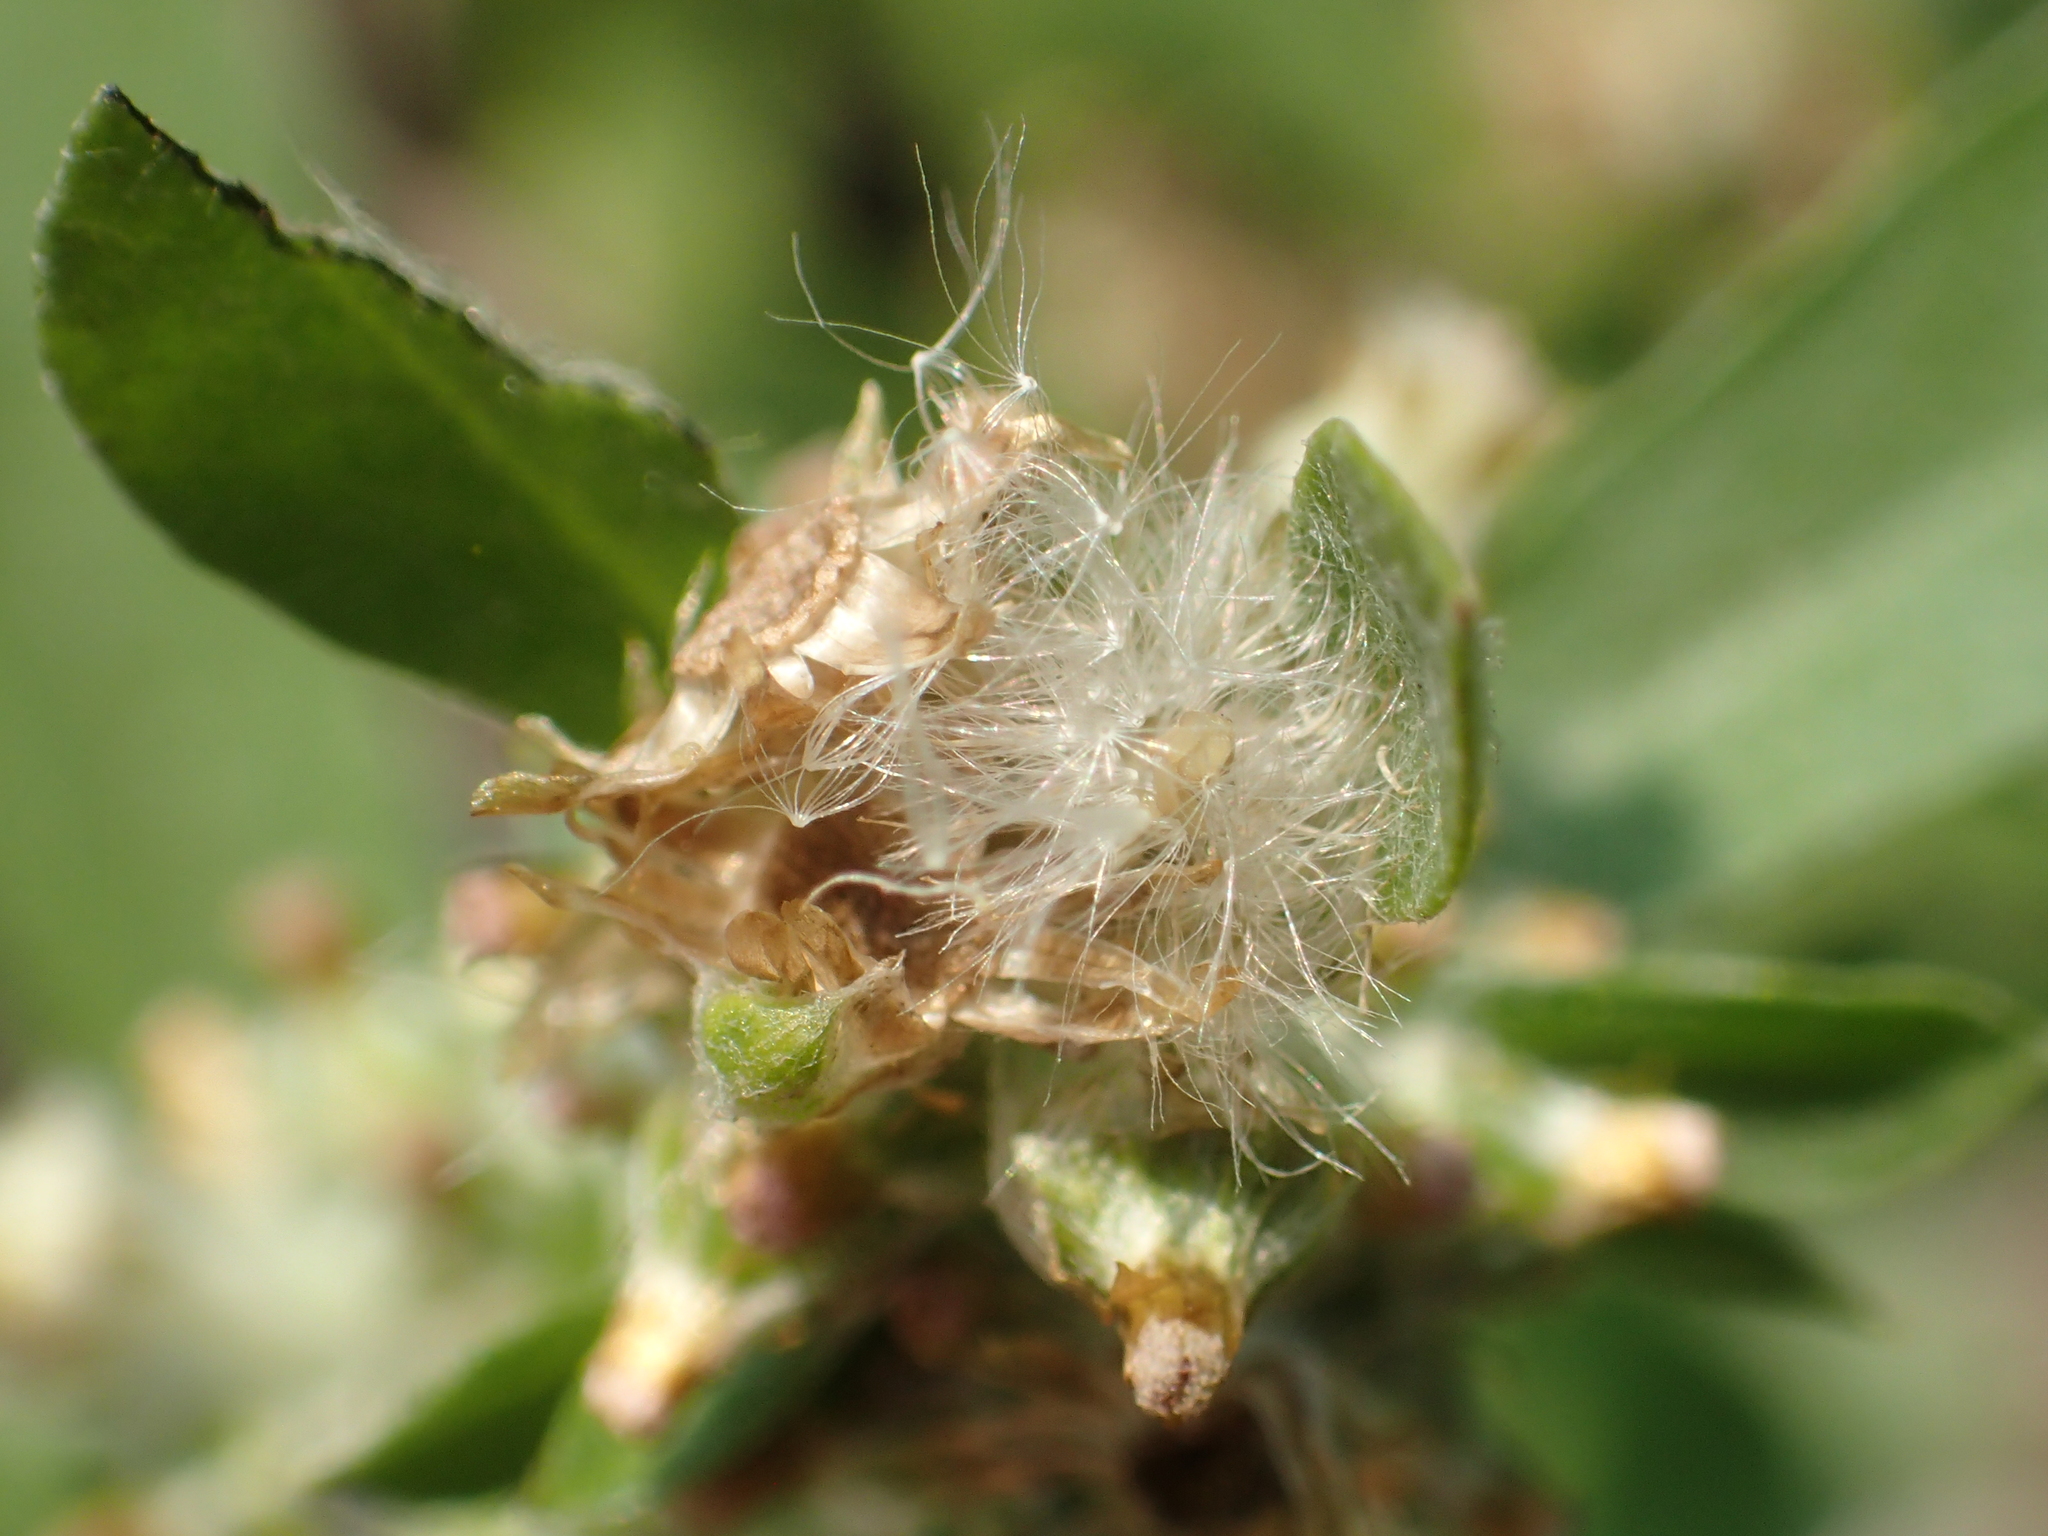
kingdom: Plantae
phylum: Tracheophyta
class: Magnoliopsida
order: Asterales
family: Asteraceae
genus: Gamochaeta
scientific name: Gamochaeta pensylvanica
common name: Pennsylvania everlasting
